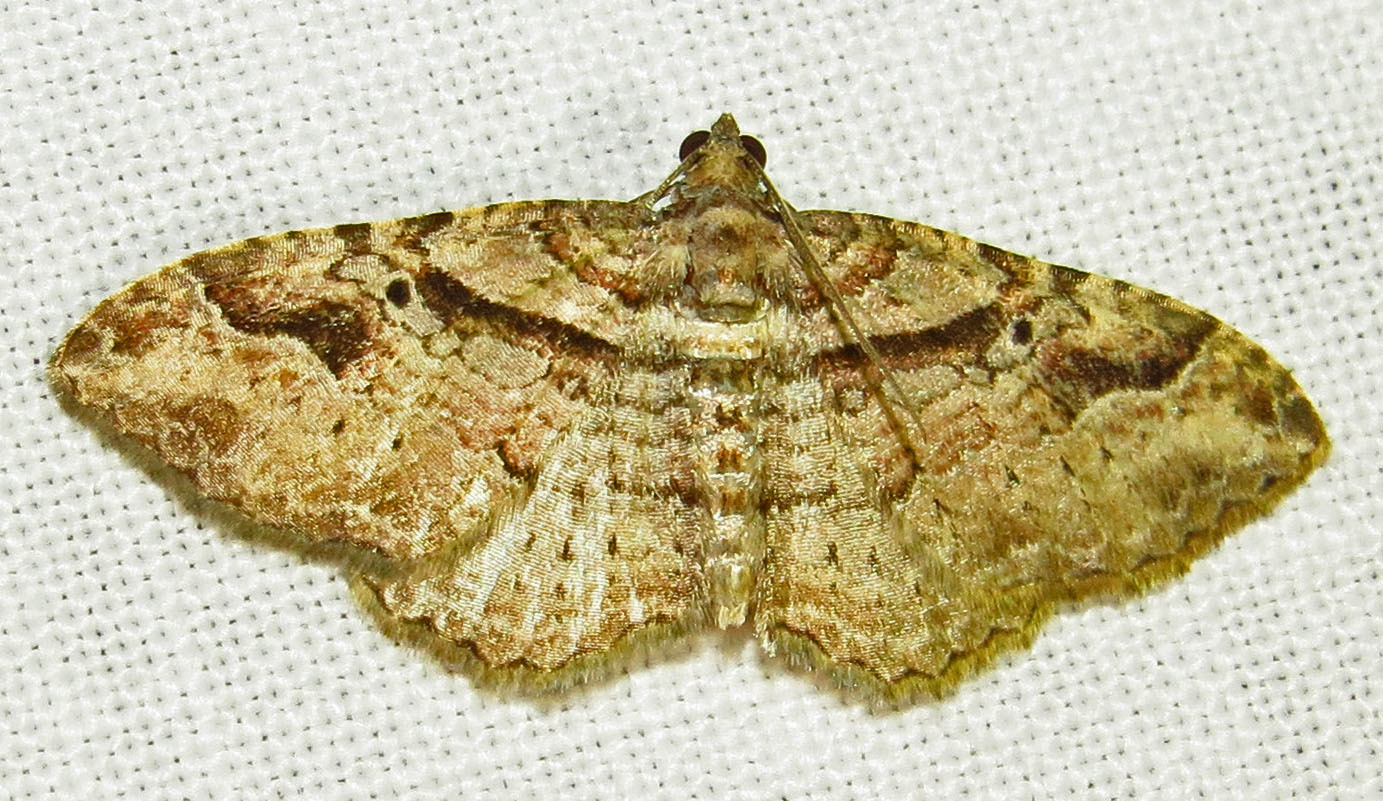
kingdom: Animalia
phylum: Arthropoda
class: Insecta
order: Lepidoptera
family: Geometridae
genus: Costaconvexa
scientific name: Costaconvexa centrostrigaria
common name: Bent-line carpet
